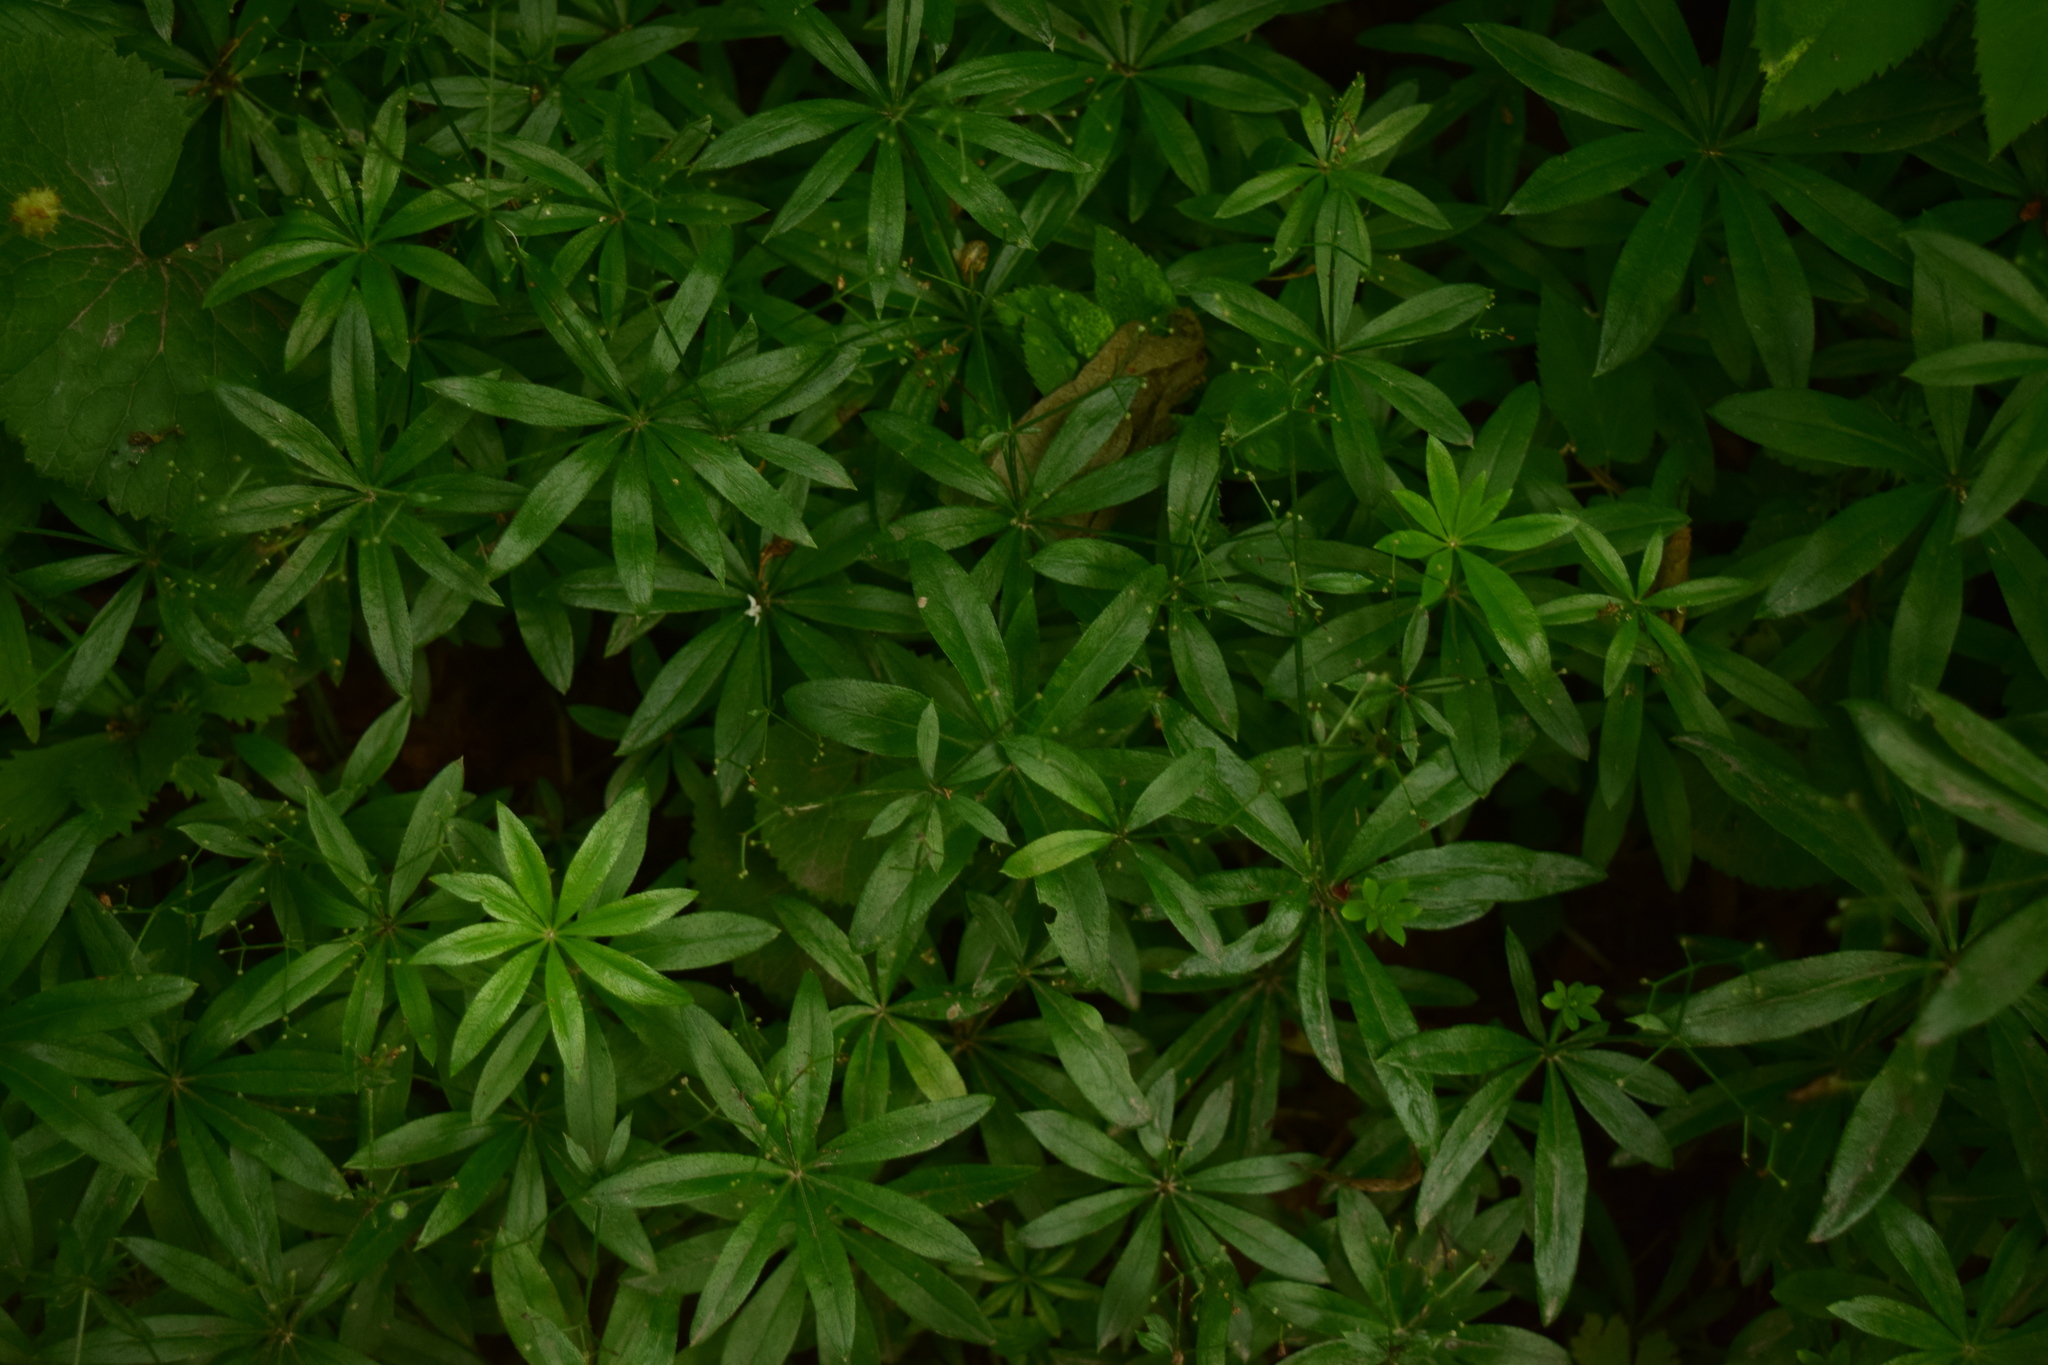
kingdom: Plantae
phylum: Tracheophyta
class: Magnoliopsida
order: Gentianales
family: Rubiaceae
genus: Galium
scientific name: Galium odoratum
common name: Sweet woodruff
